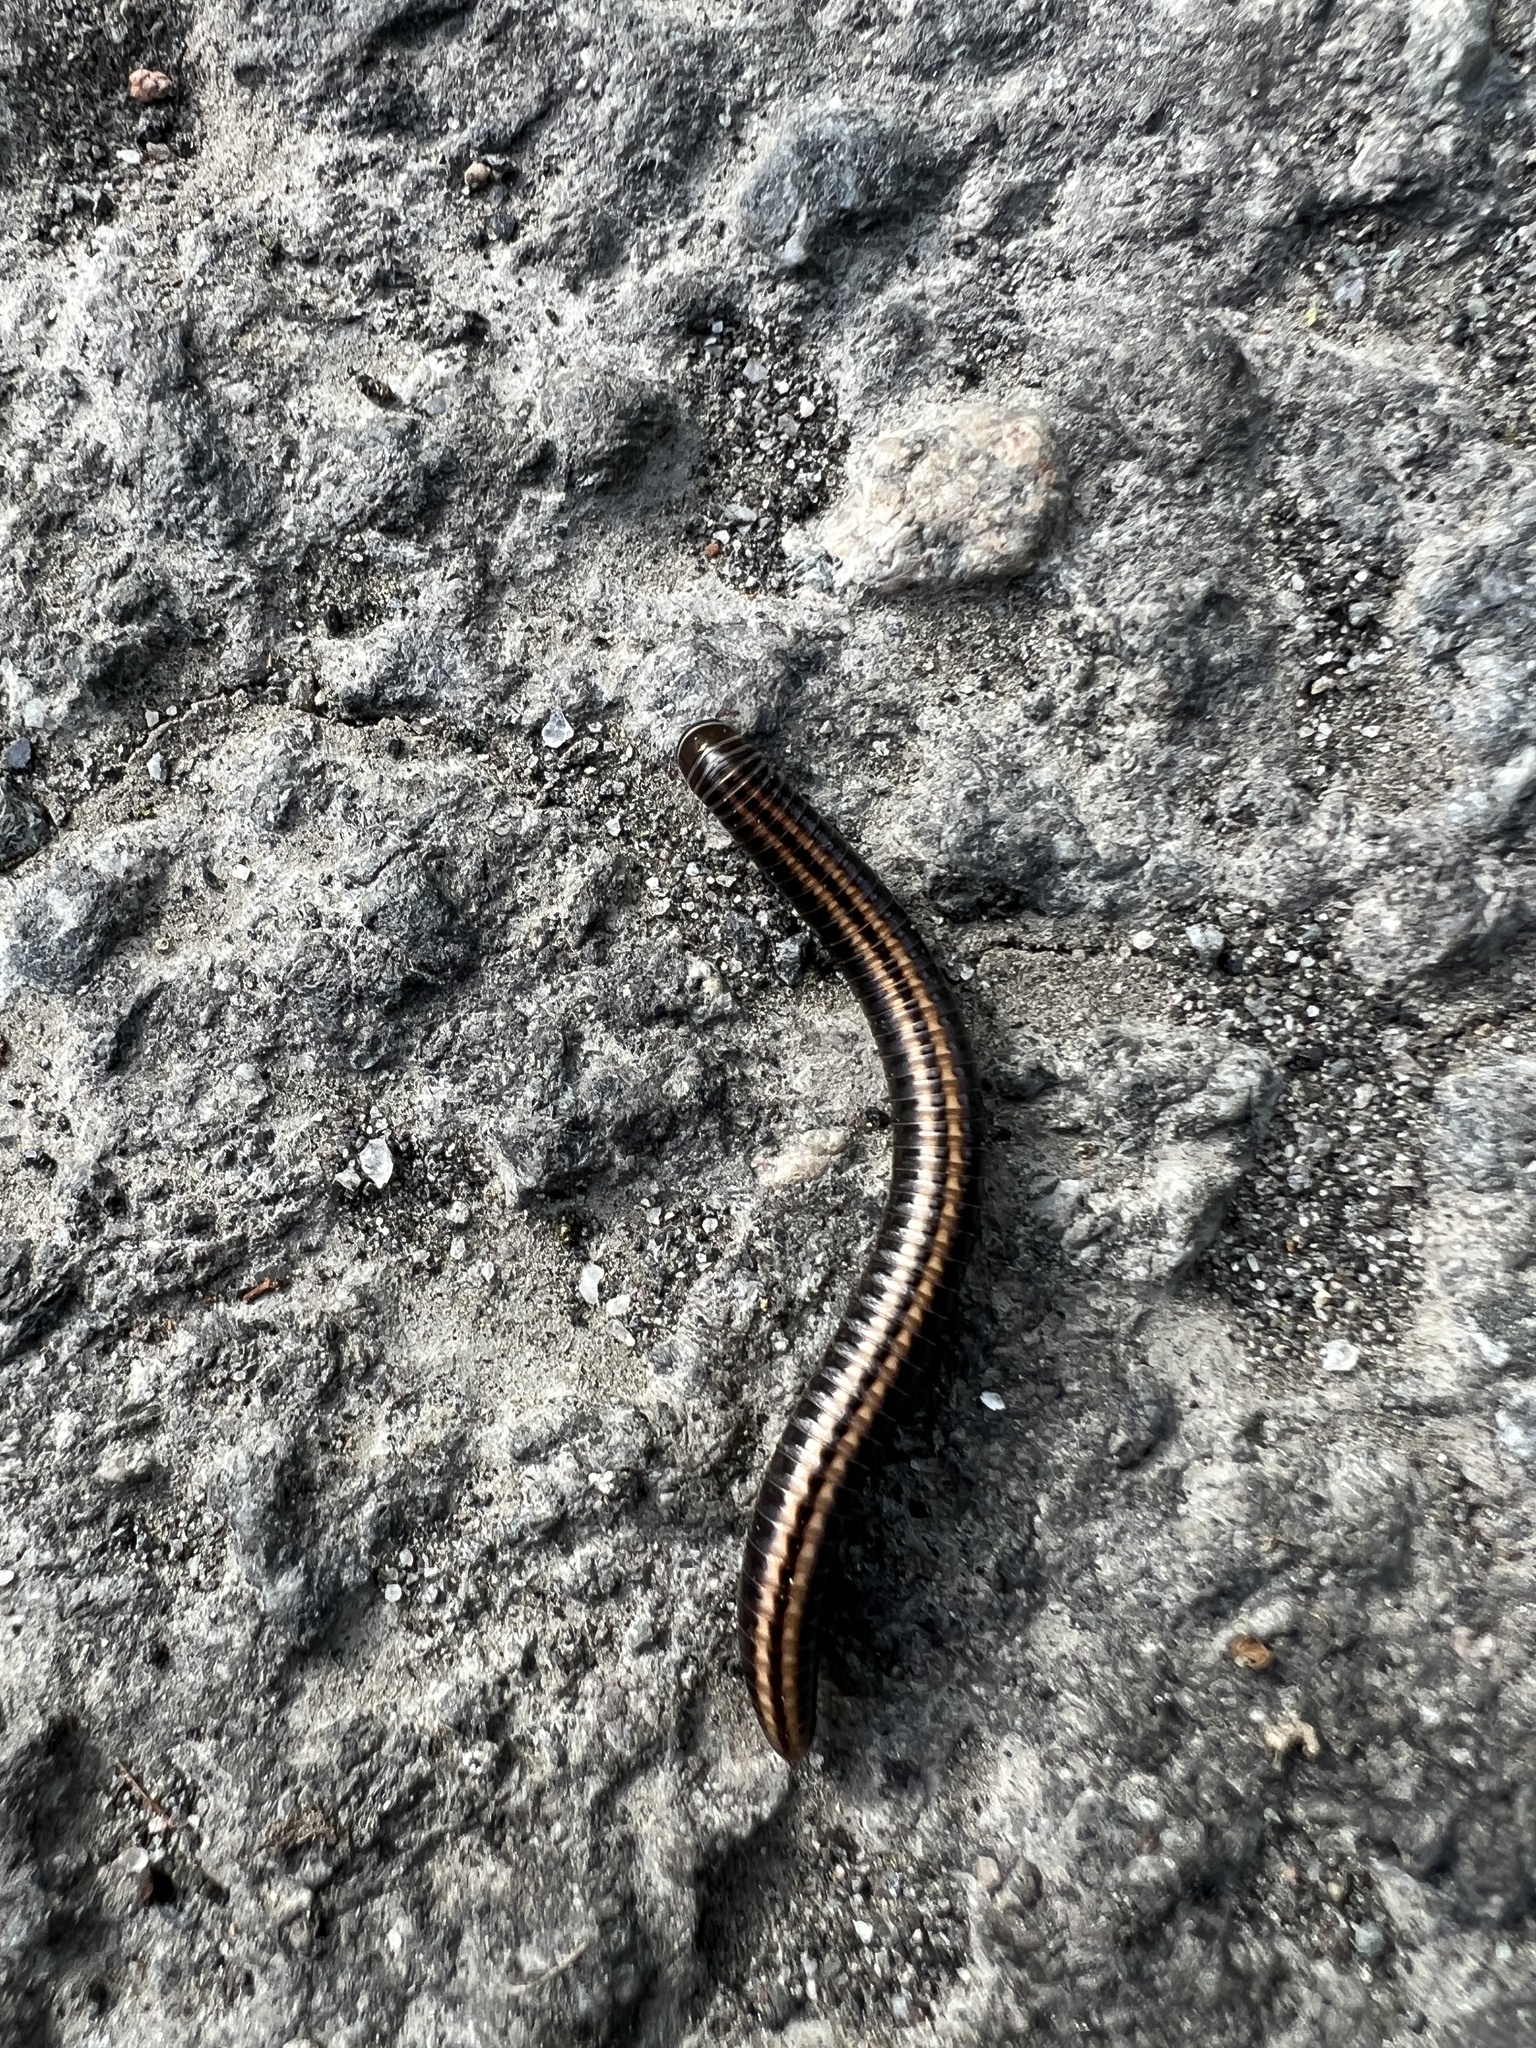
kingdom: Animalia
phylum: Arthropoda
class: Diplopoda
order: Julida
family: Julidae
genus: Ommatoiulus
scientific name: Ommatoiulus sabulosus
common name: Striped millipede
